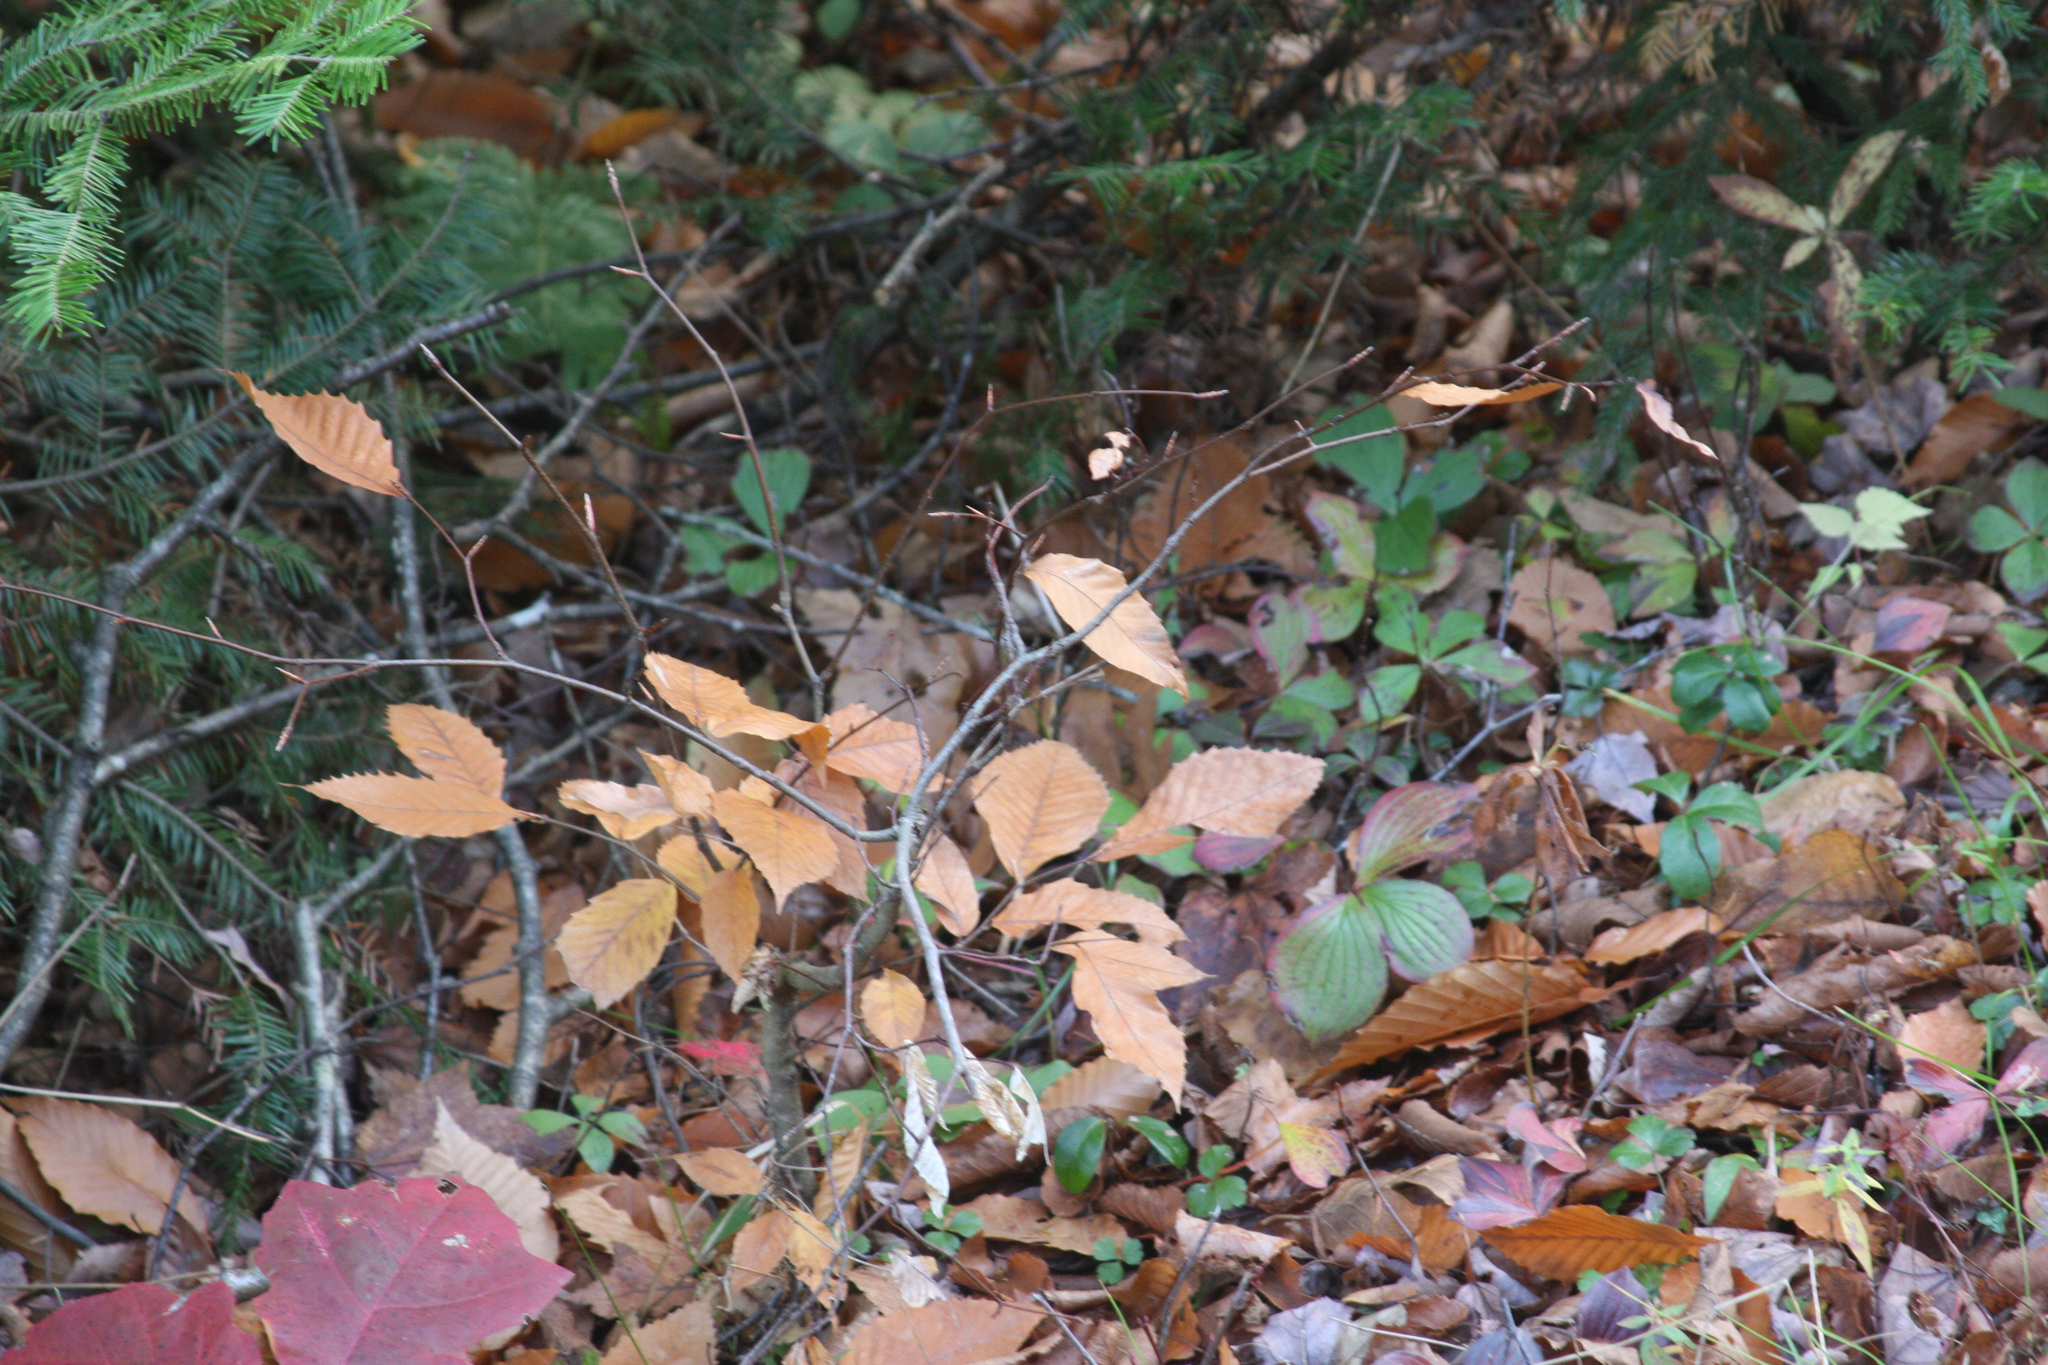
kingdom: Plantae
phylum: Tracheophyta
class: Magnoliopsida
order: Fagales
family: Fagaceae
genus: Fagus
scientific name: Fagus grandifolia
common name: American beech
